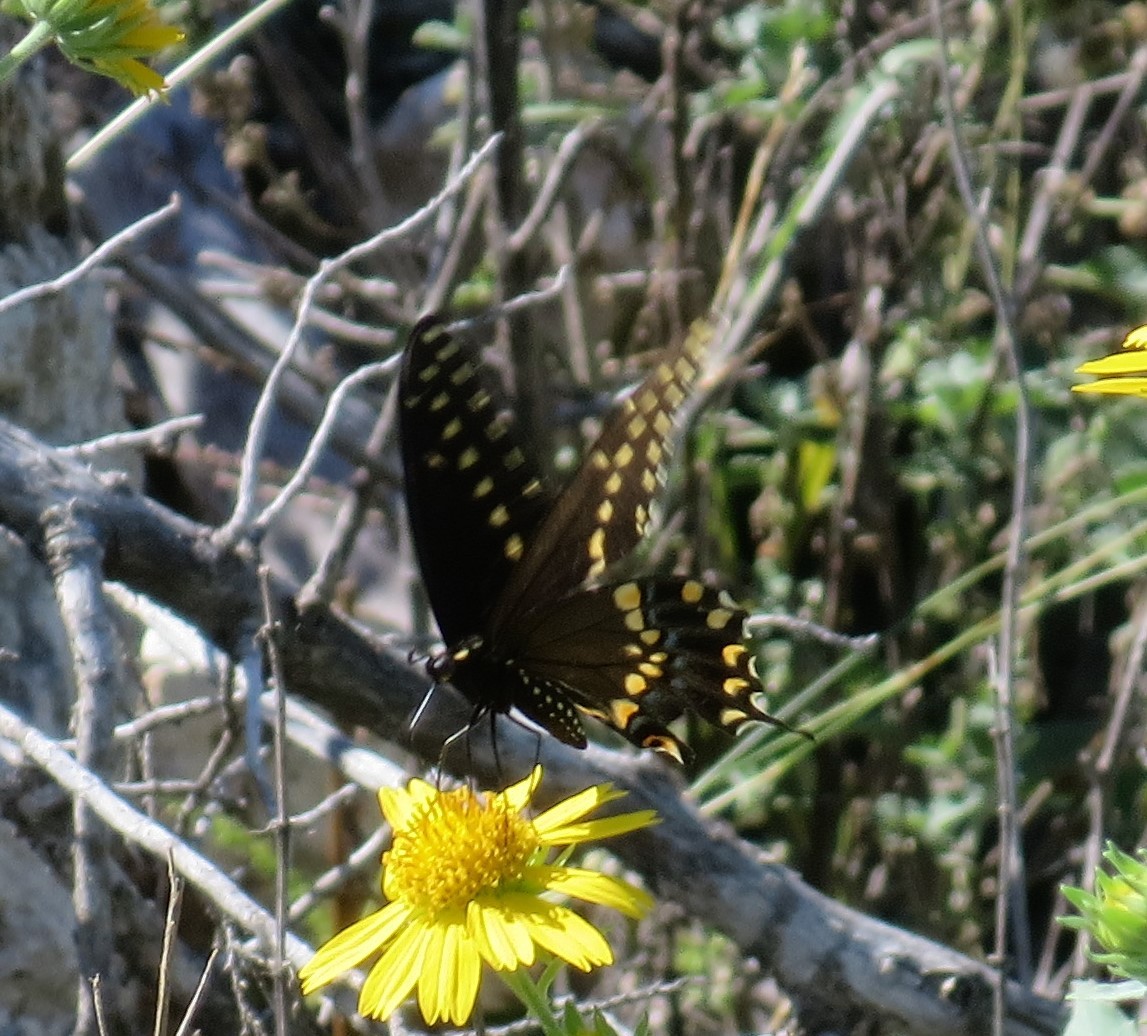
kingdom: Animalia
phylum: Arthropoda
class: Insecta
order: Lepidoptera
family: Papilionidae
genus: Papilio
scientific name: Papilio polyxenes
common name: Black swallowtail
